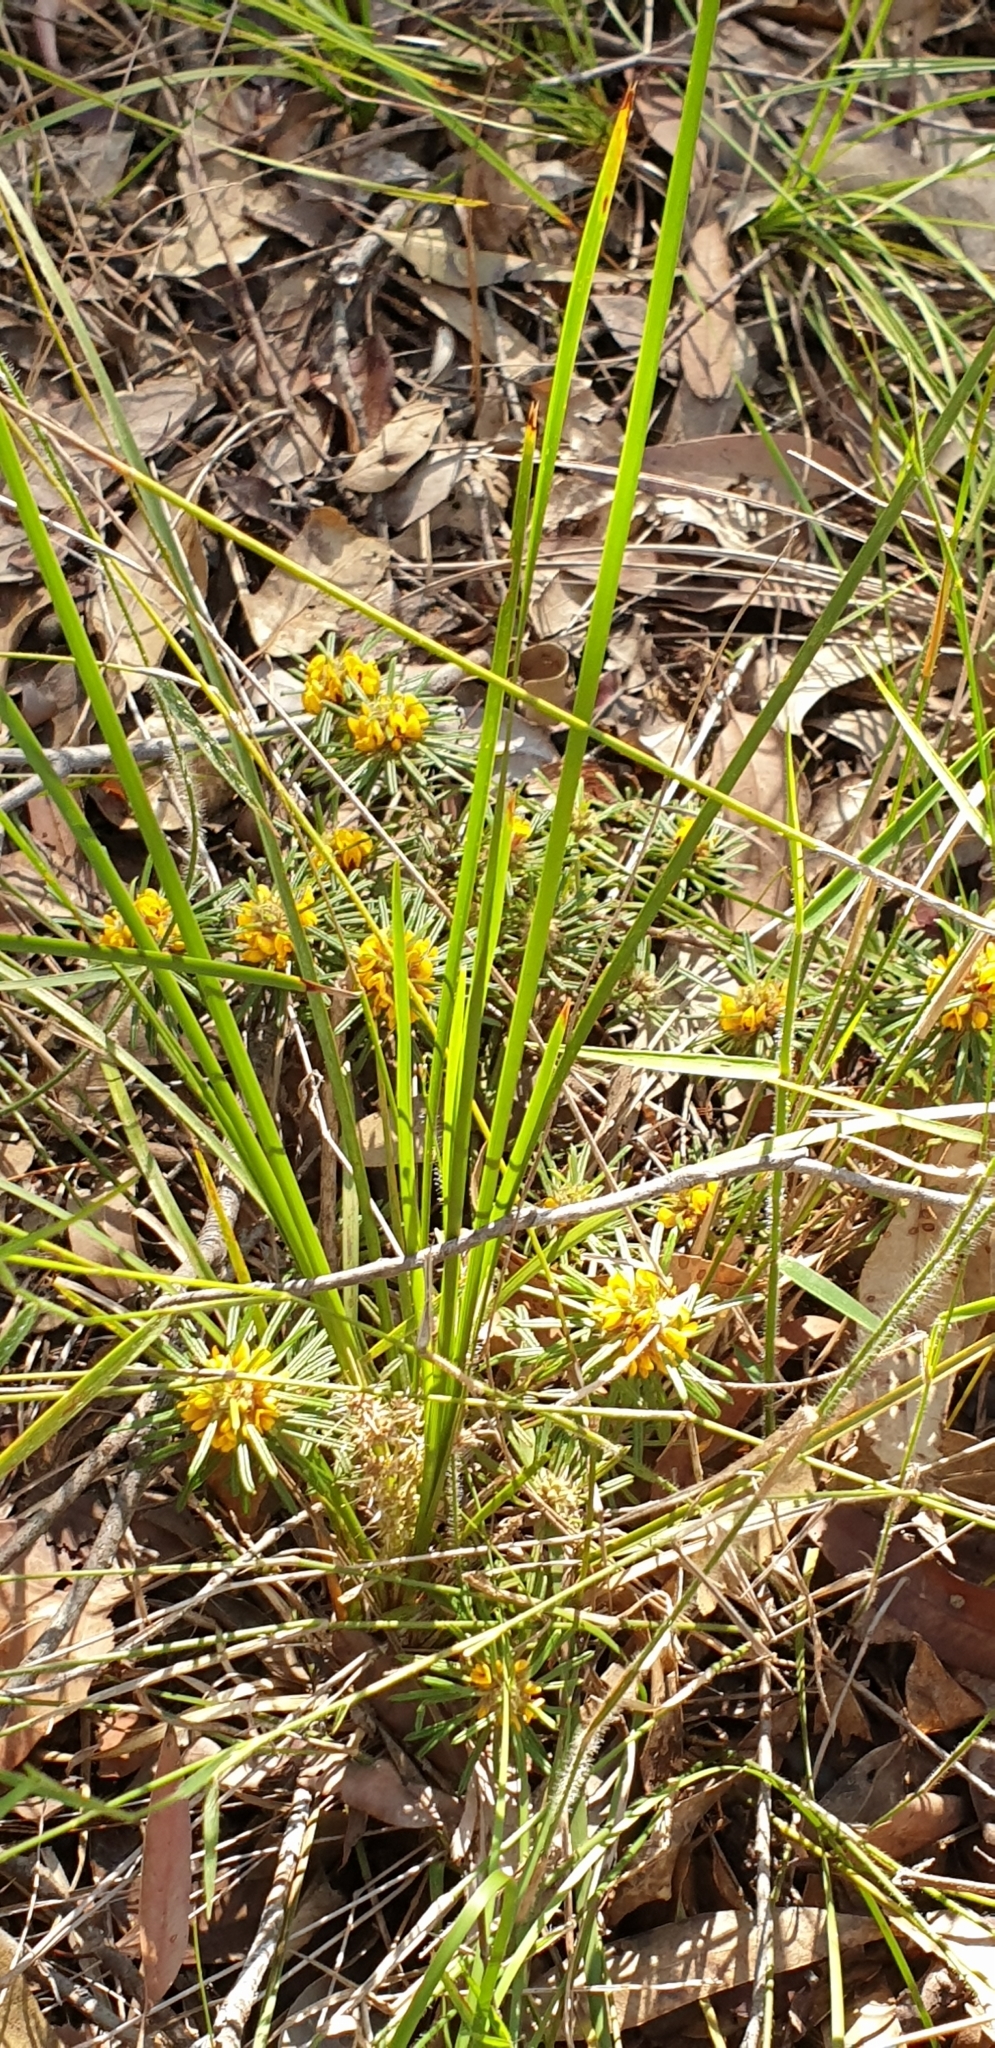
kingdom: Plantae
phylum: Tracheophyta
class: Magnoliopsida
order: Fabales
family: Fabaceae
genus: Pultenaea
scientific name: Pultenaea petiolaris
